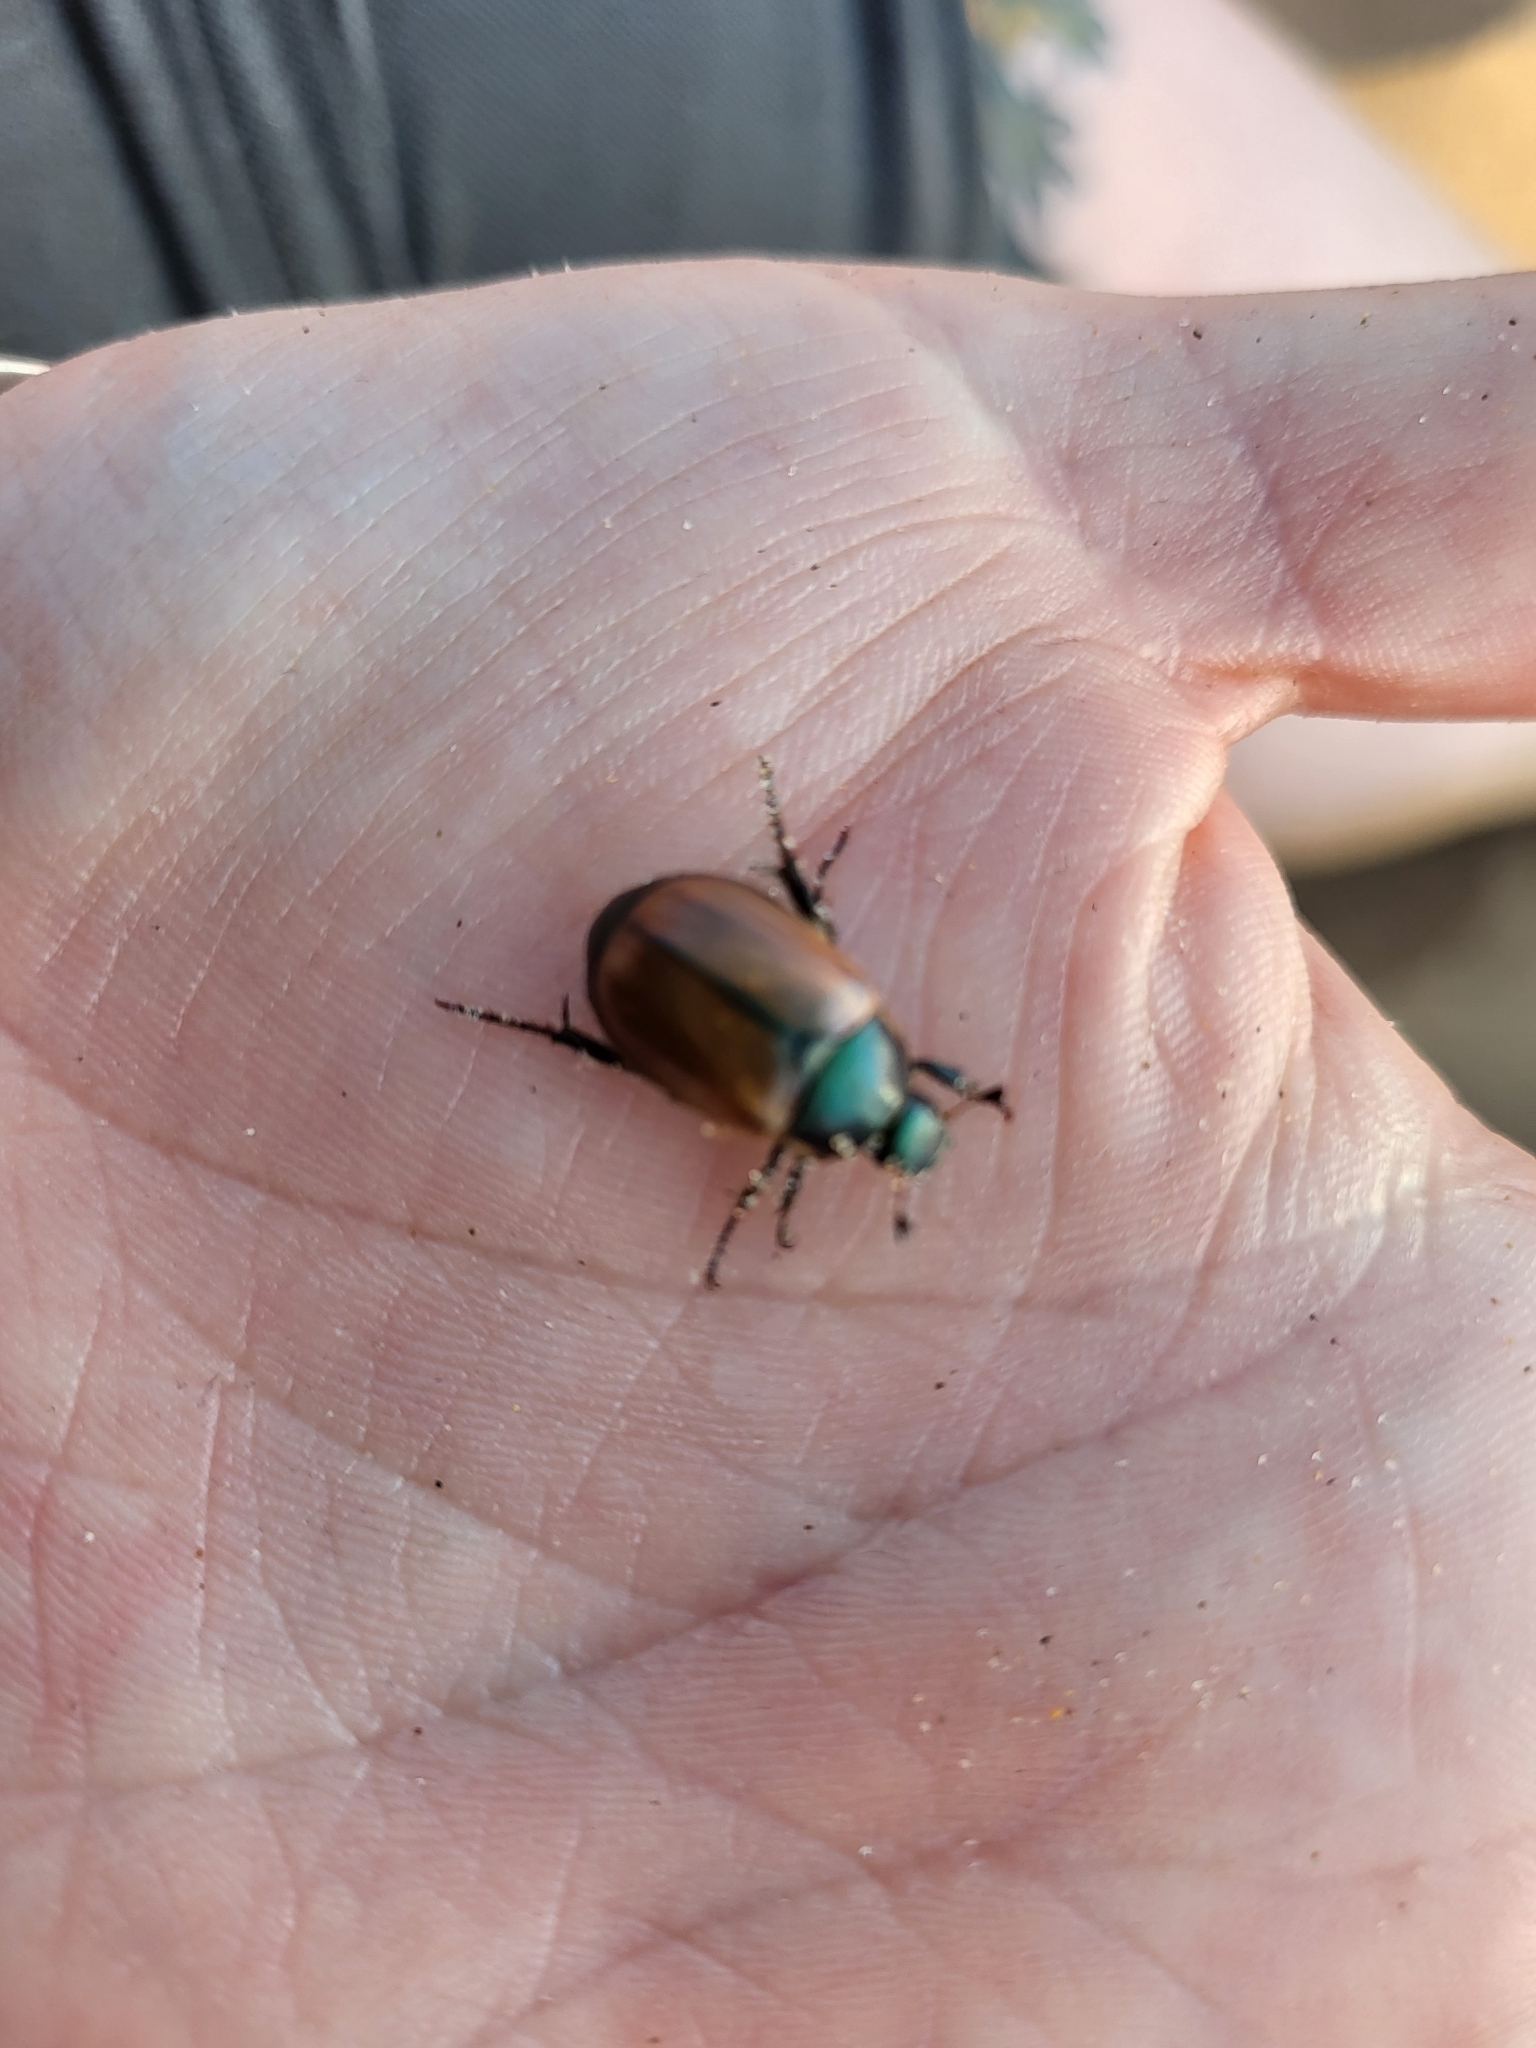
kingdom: Animalia
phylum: Arthropoda
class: Insecta
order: Coleoptera
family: Scarabaeidae
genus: Anomala
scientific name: Anomala dubia
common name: Dune chafer
